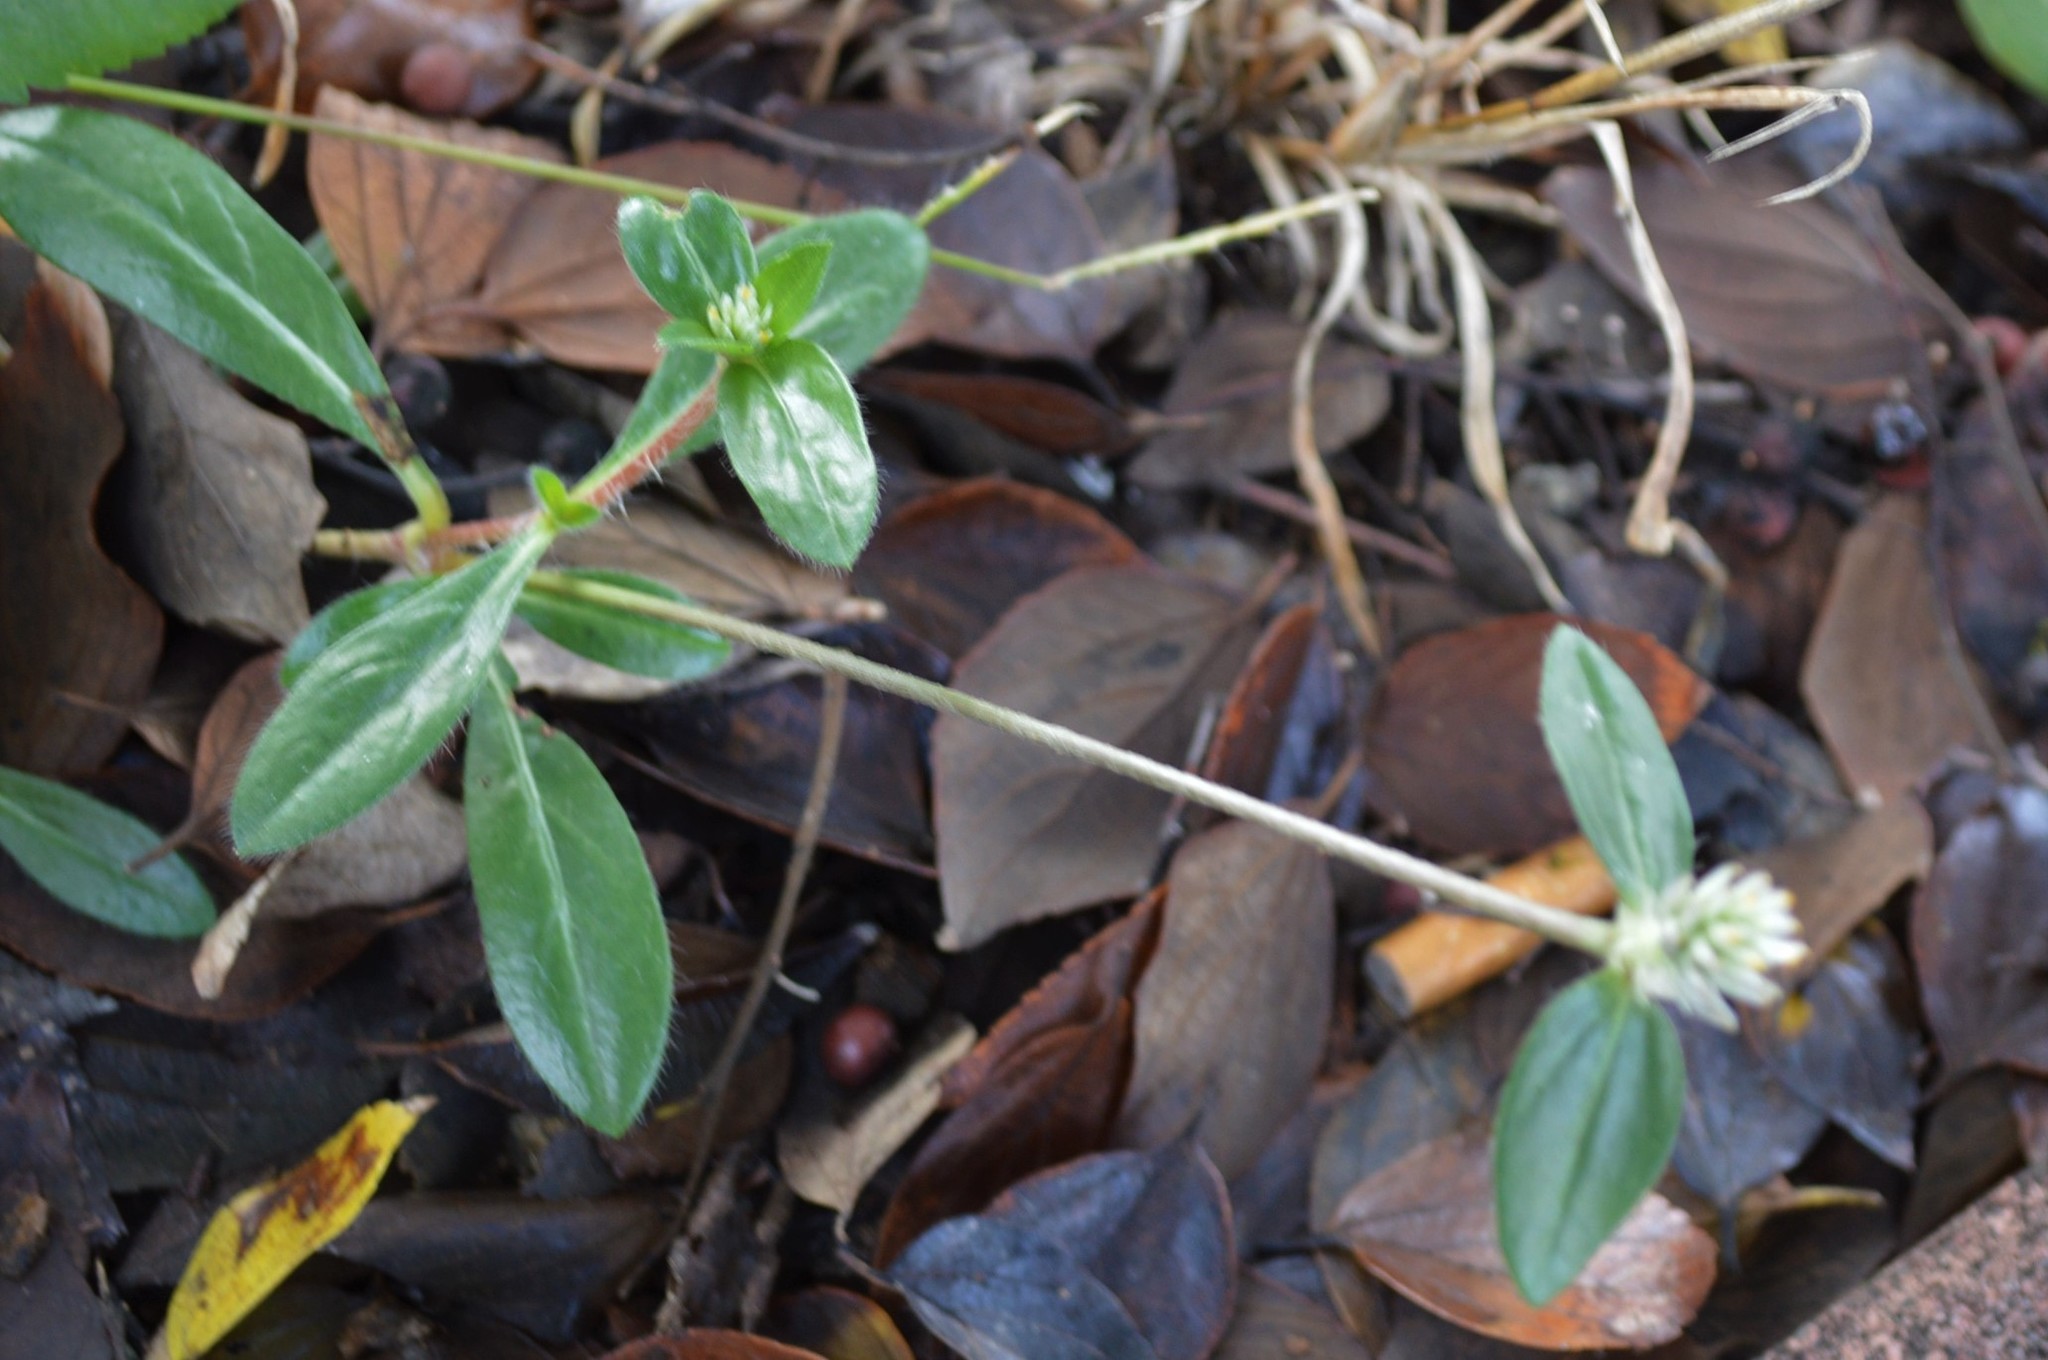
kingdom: Plantae
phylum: Tracheophyta
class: Magnoliopsida
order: Caryophyllales
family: Amaranthaceae
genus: Gomphrena
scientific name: Gomphrena celosioides
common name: Gomphrena-weed
